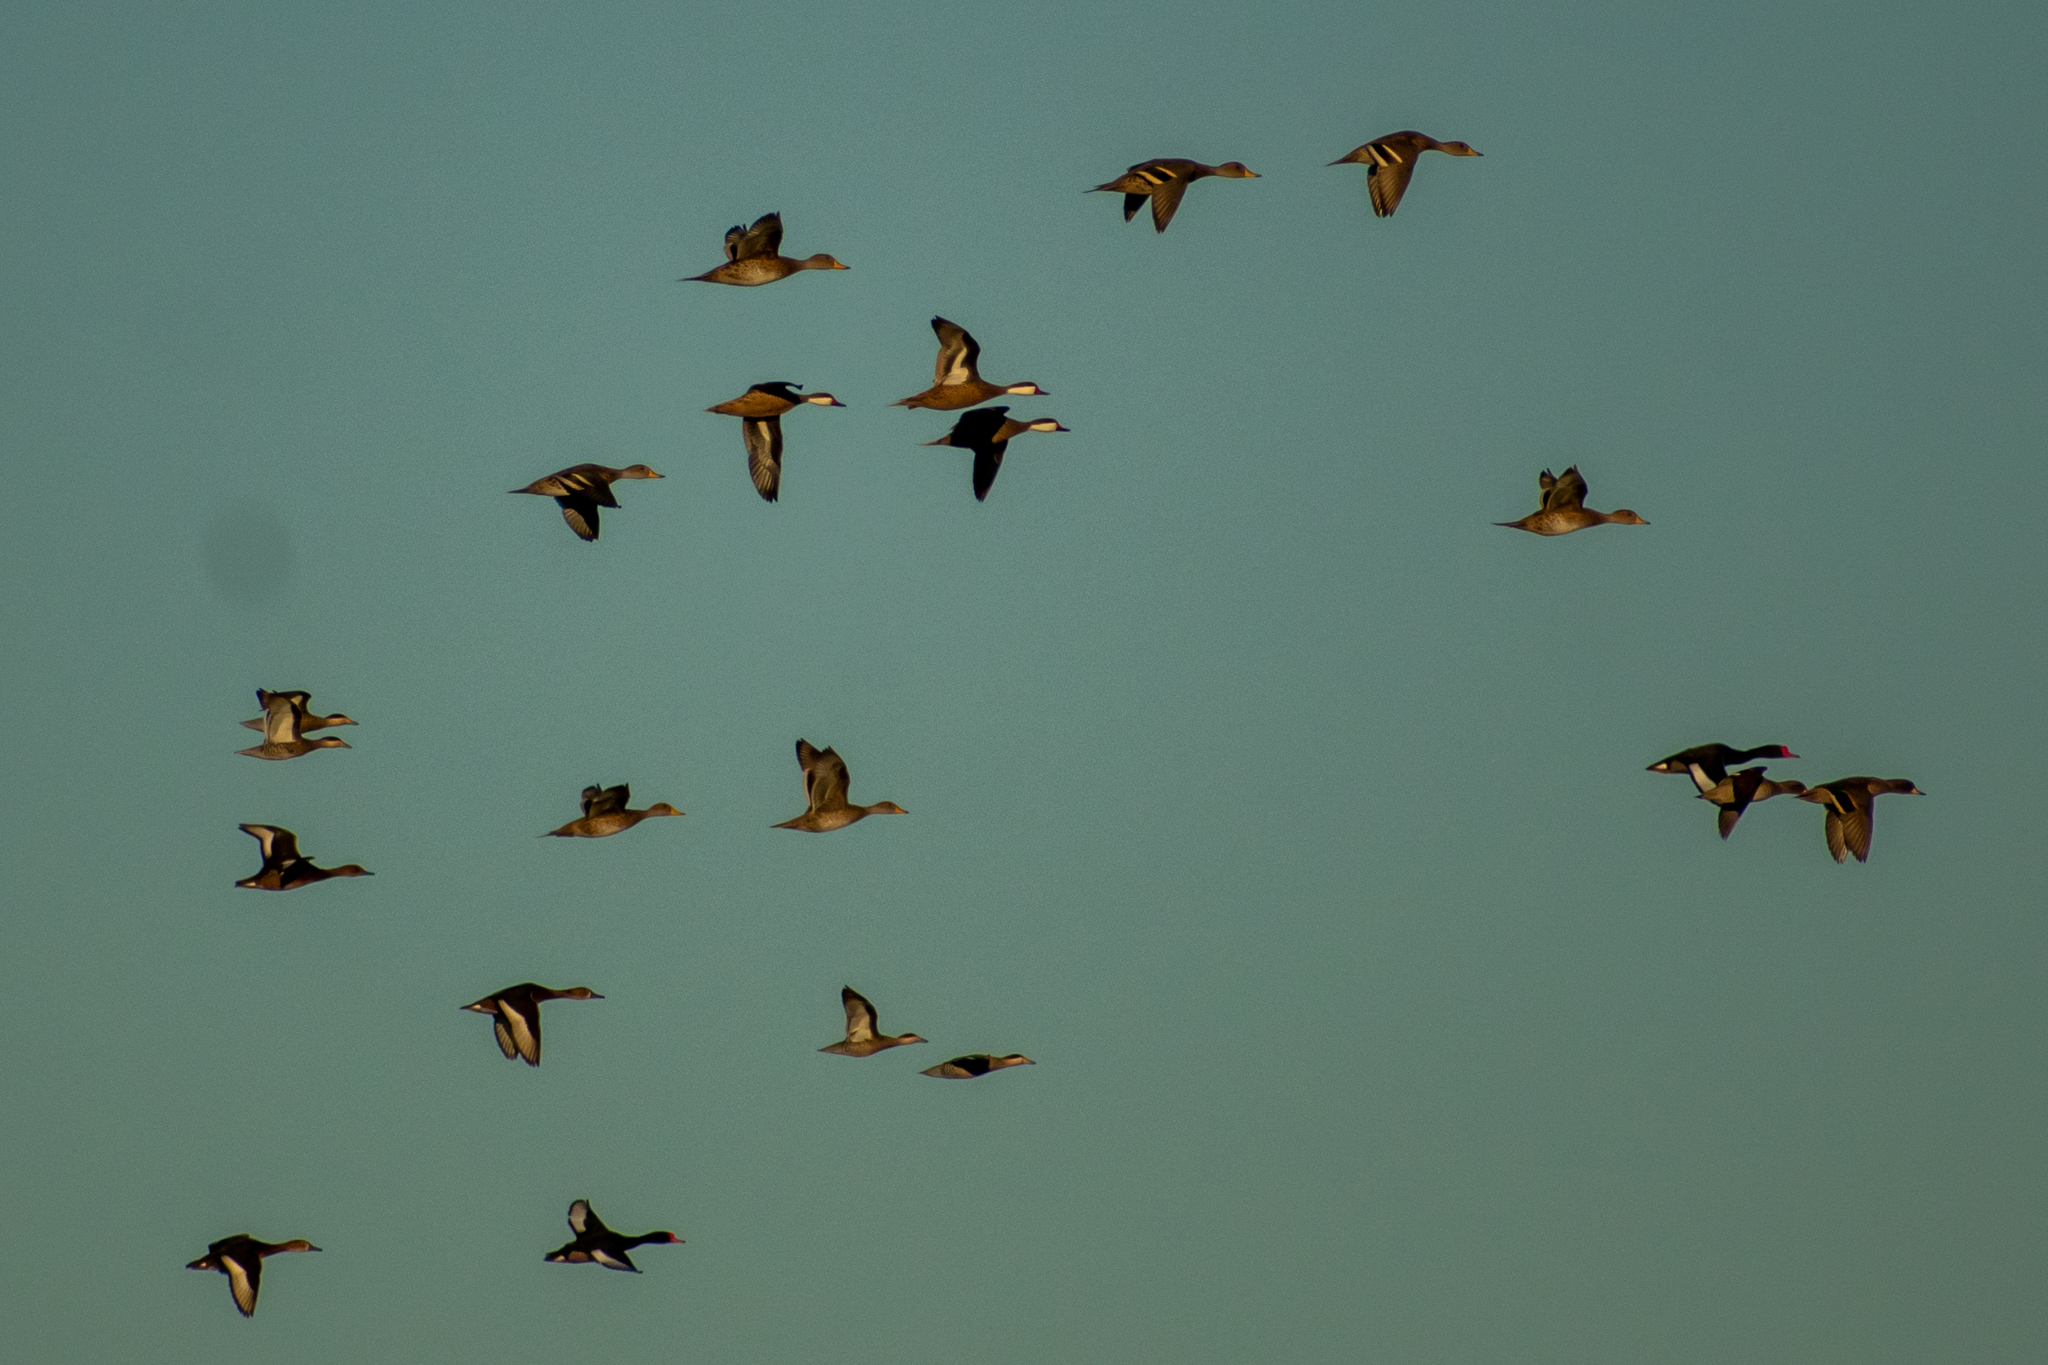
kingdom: Animalia
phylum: Chordata
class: Aves
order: Anseriformes
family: Anatidae
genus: Anas
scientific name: Anas bahamensis
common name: White-cheeked pintail
